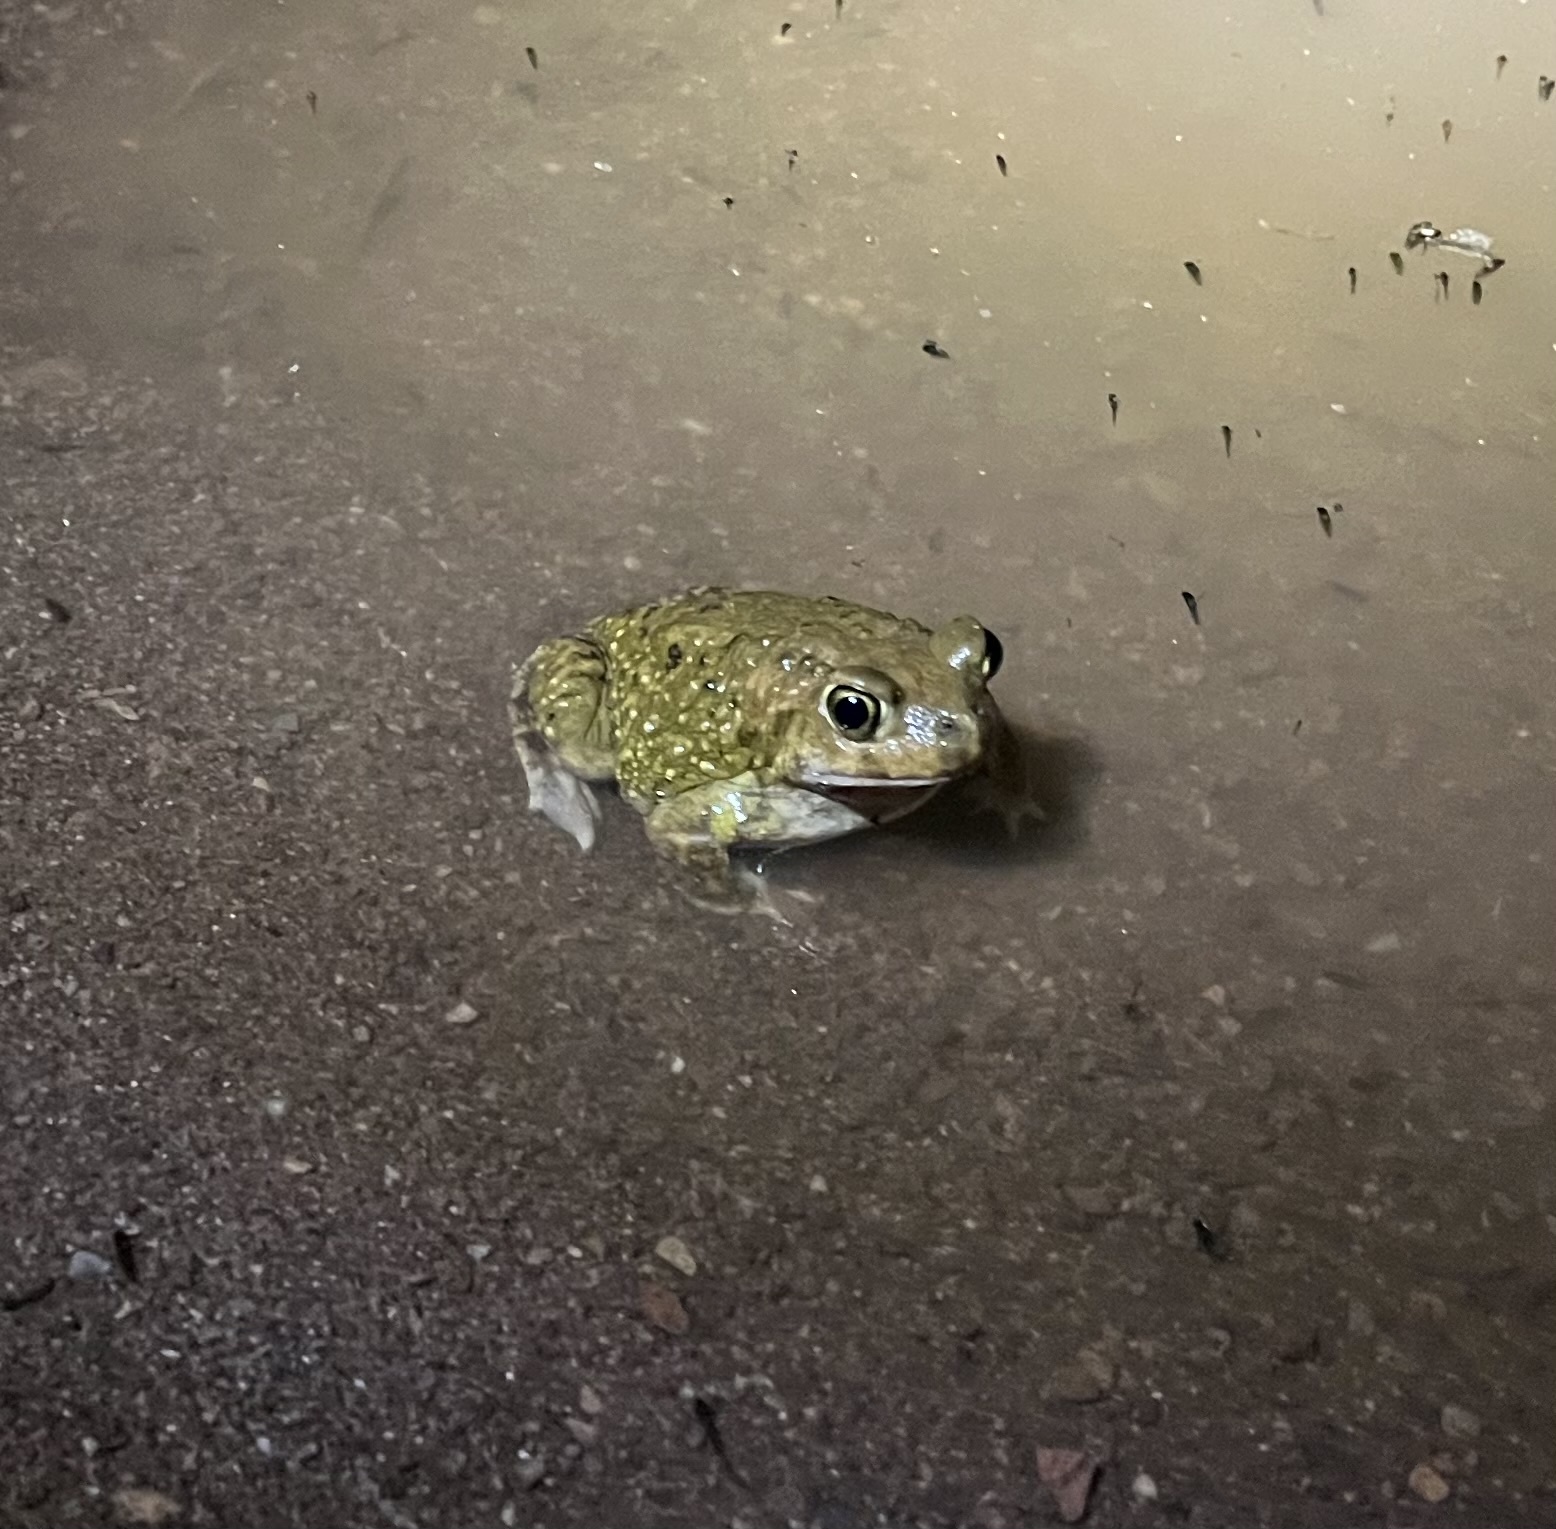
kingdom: Animalia
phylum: Chordata
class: Amphibia
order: Anura
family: Scaphiopodidae
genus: Scaphiopus
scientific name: Scaphiopus couchii
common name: Couch's spadefoot toad
